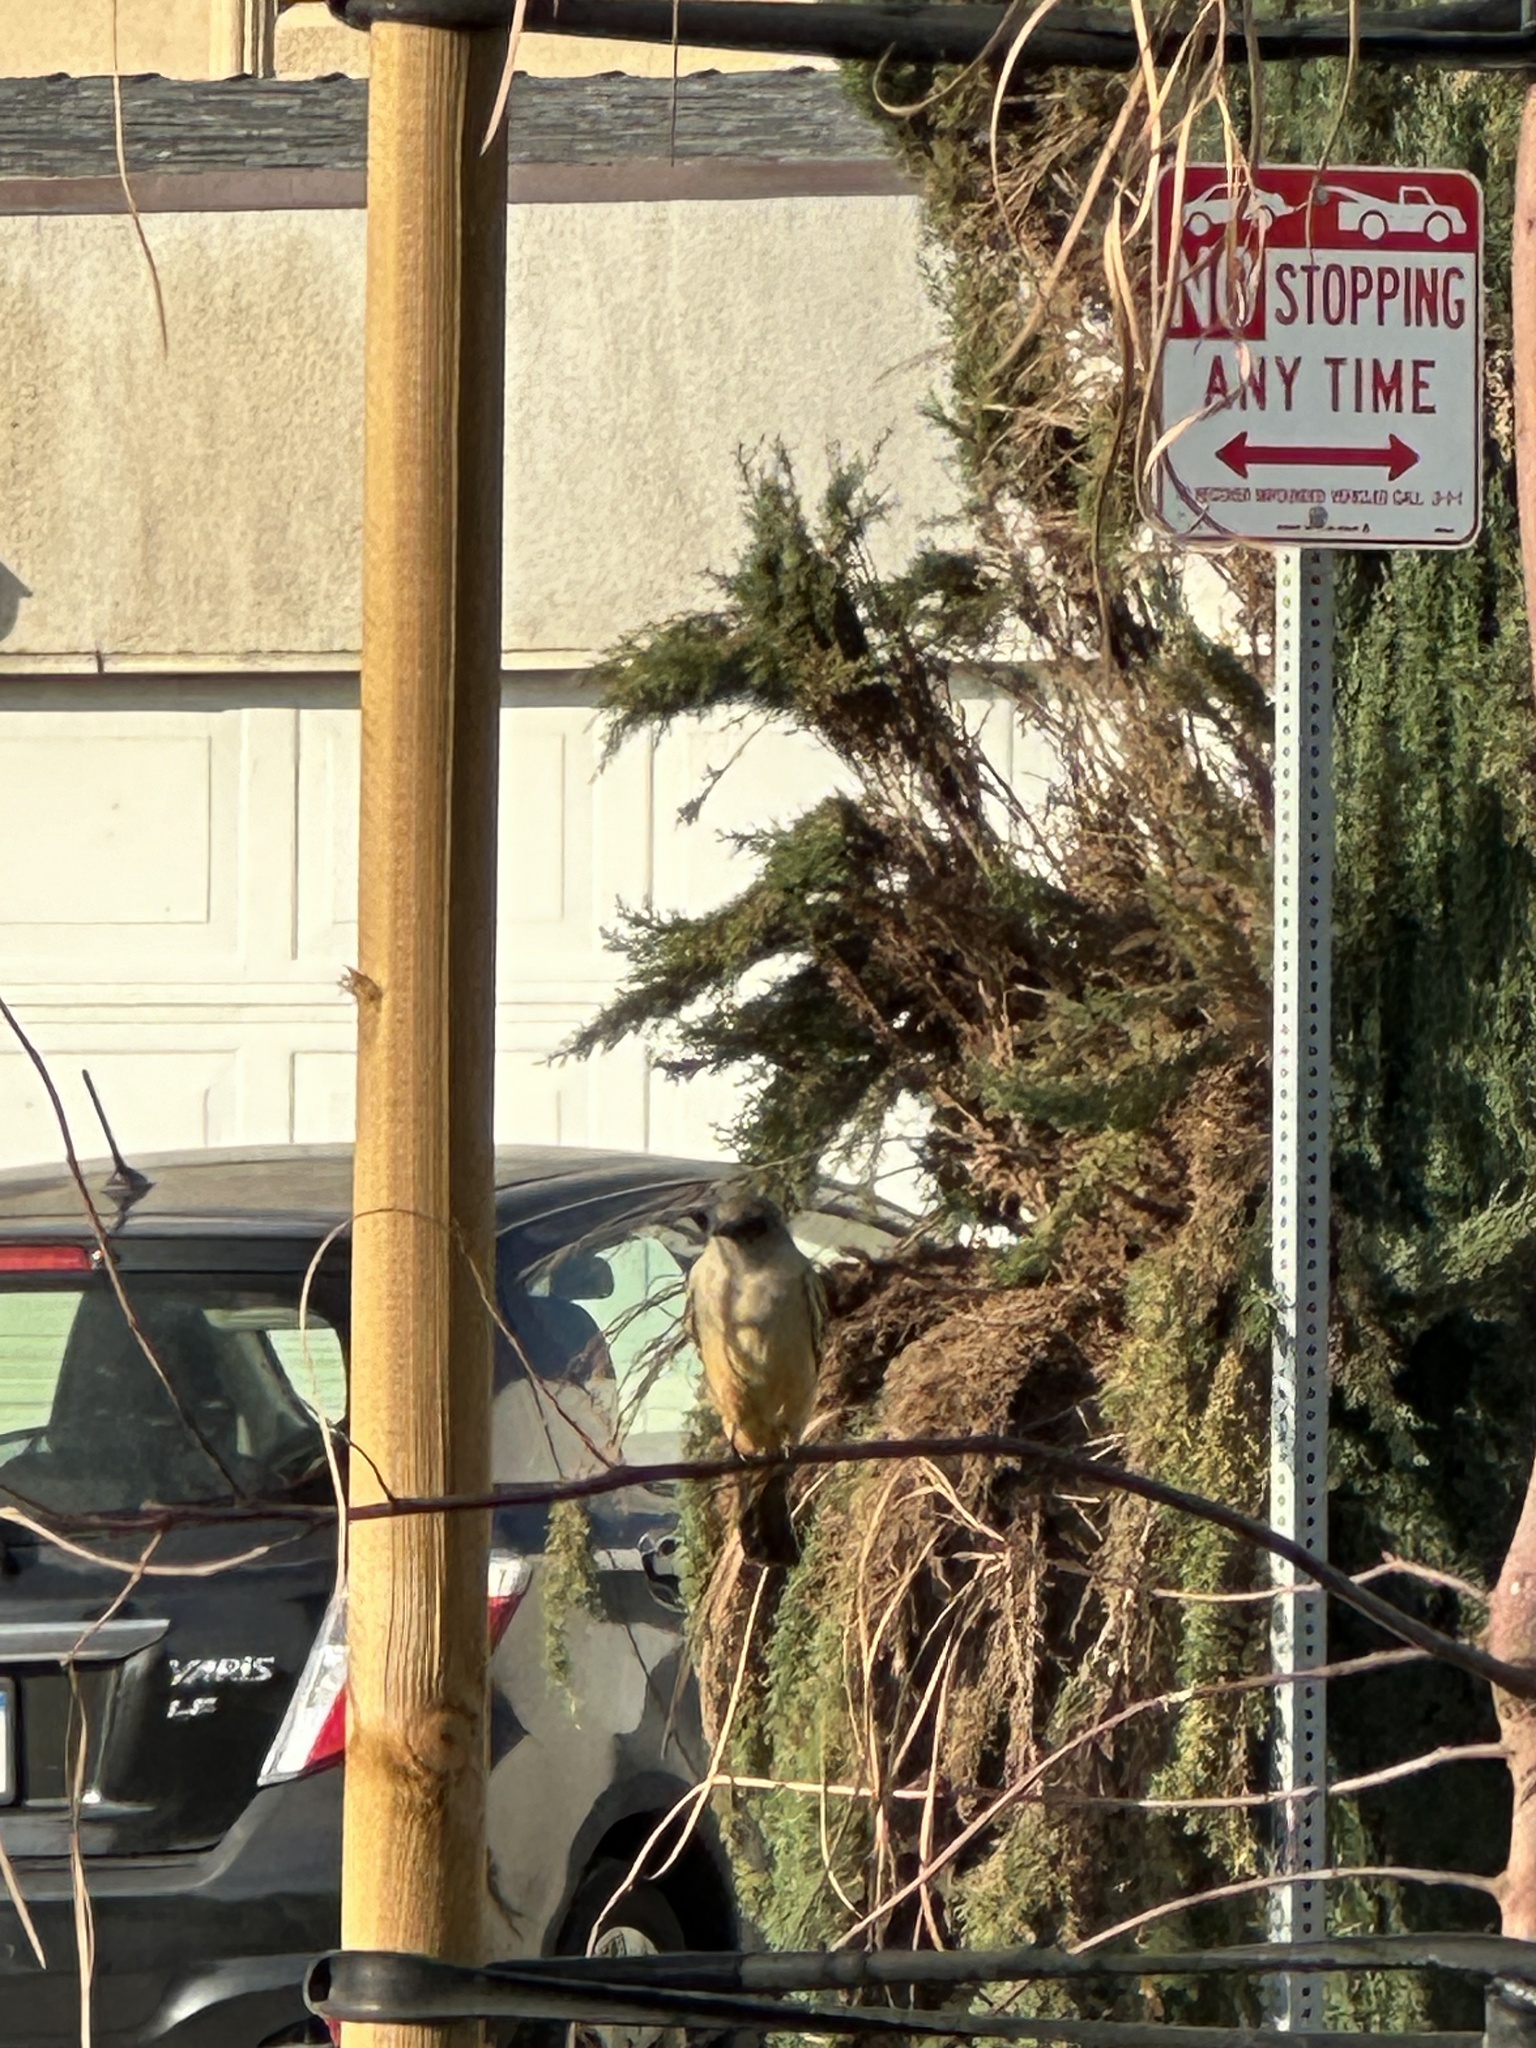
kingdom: Animalia
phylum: Chordata
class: Aves
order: Passeriformes
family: Tyrannidae
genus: Sayornis
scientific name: Sayornis saya
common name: Say's phoebe
